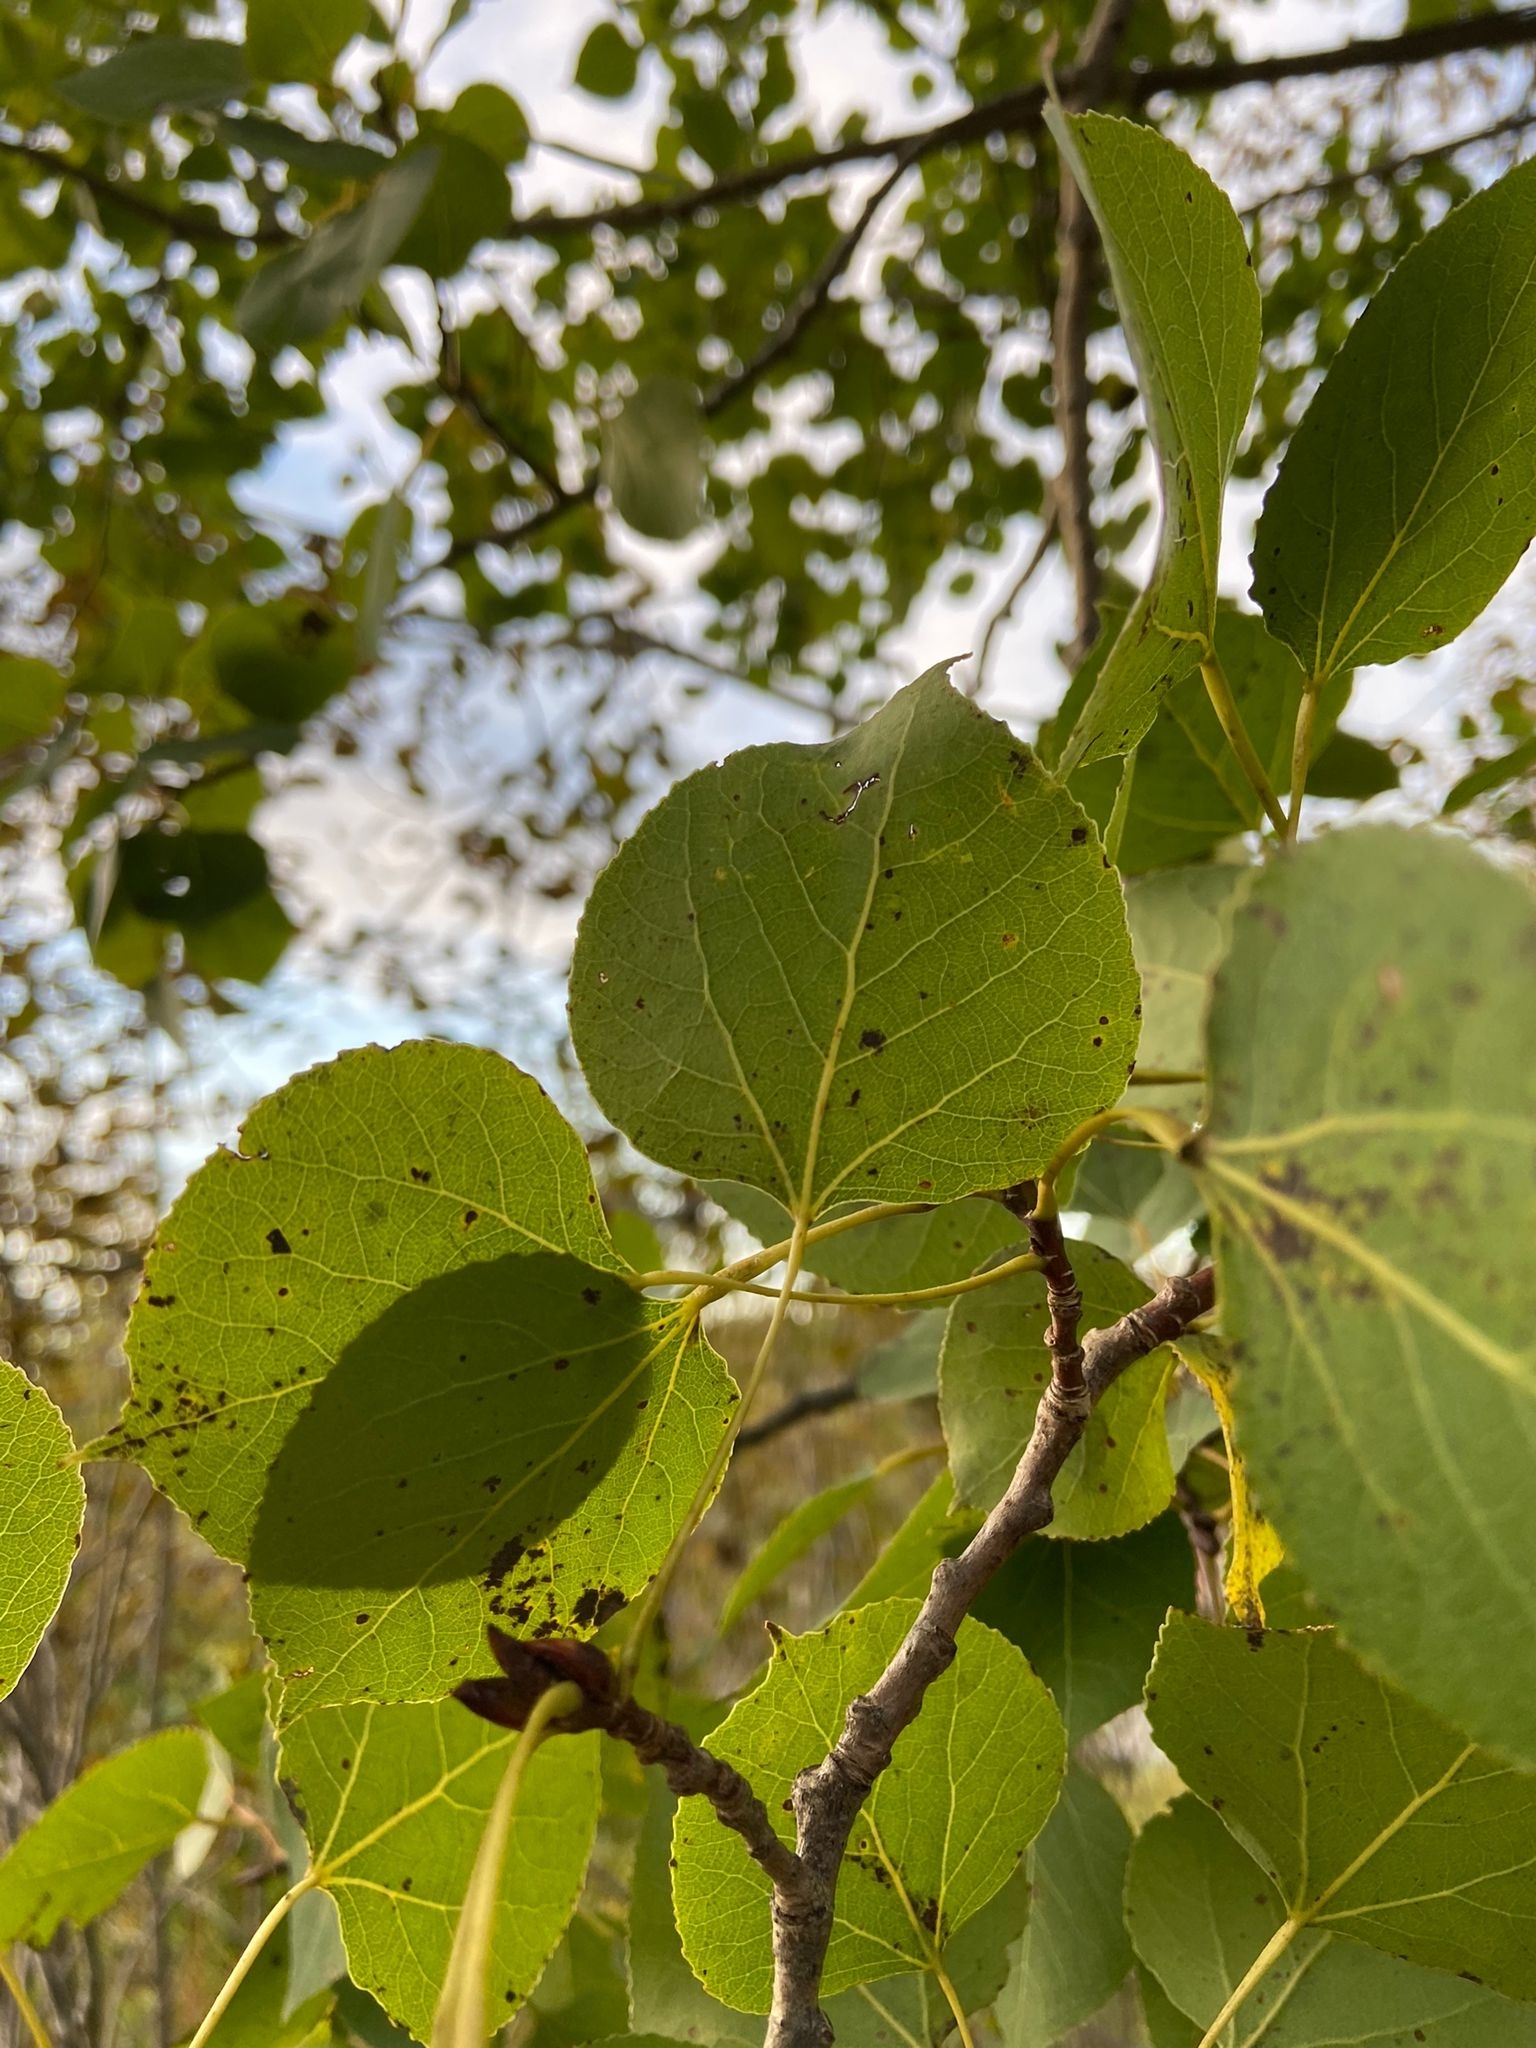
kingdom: Plantae
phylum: Tracheophyta
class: Magnoliopsida
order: Malpighiales
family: Salicaceae
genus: Populus
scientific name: Populus tremuloides
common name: Quaking aspen
